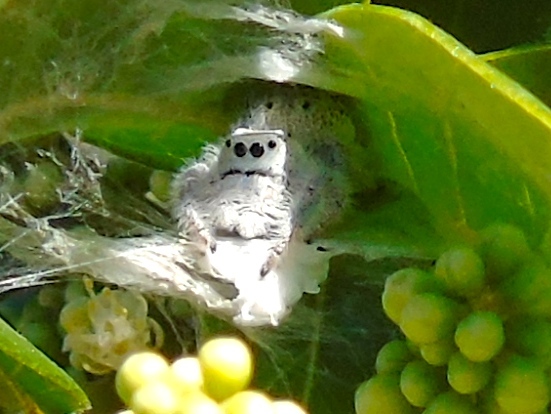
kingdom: Animalia
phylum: Arthropoda
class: Arachnida
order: Araneae
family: Salticidae
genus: Paraphidippus
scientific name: Paraphidippus fartilis
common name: Jumping spiders
